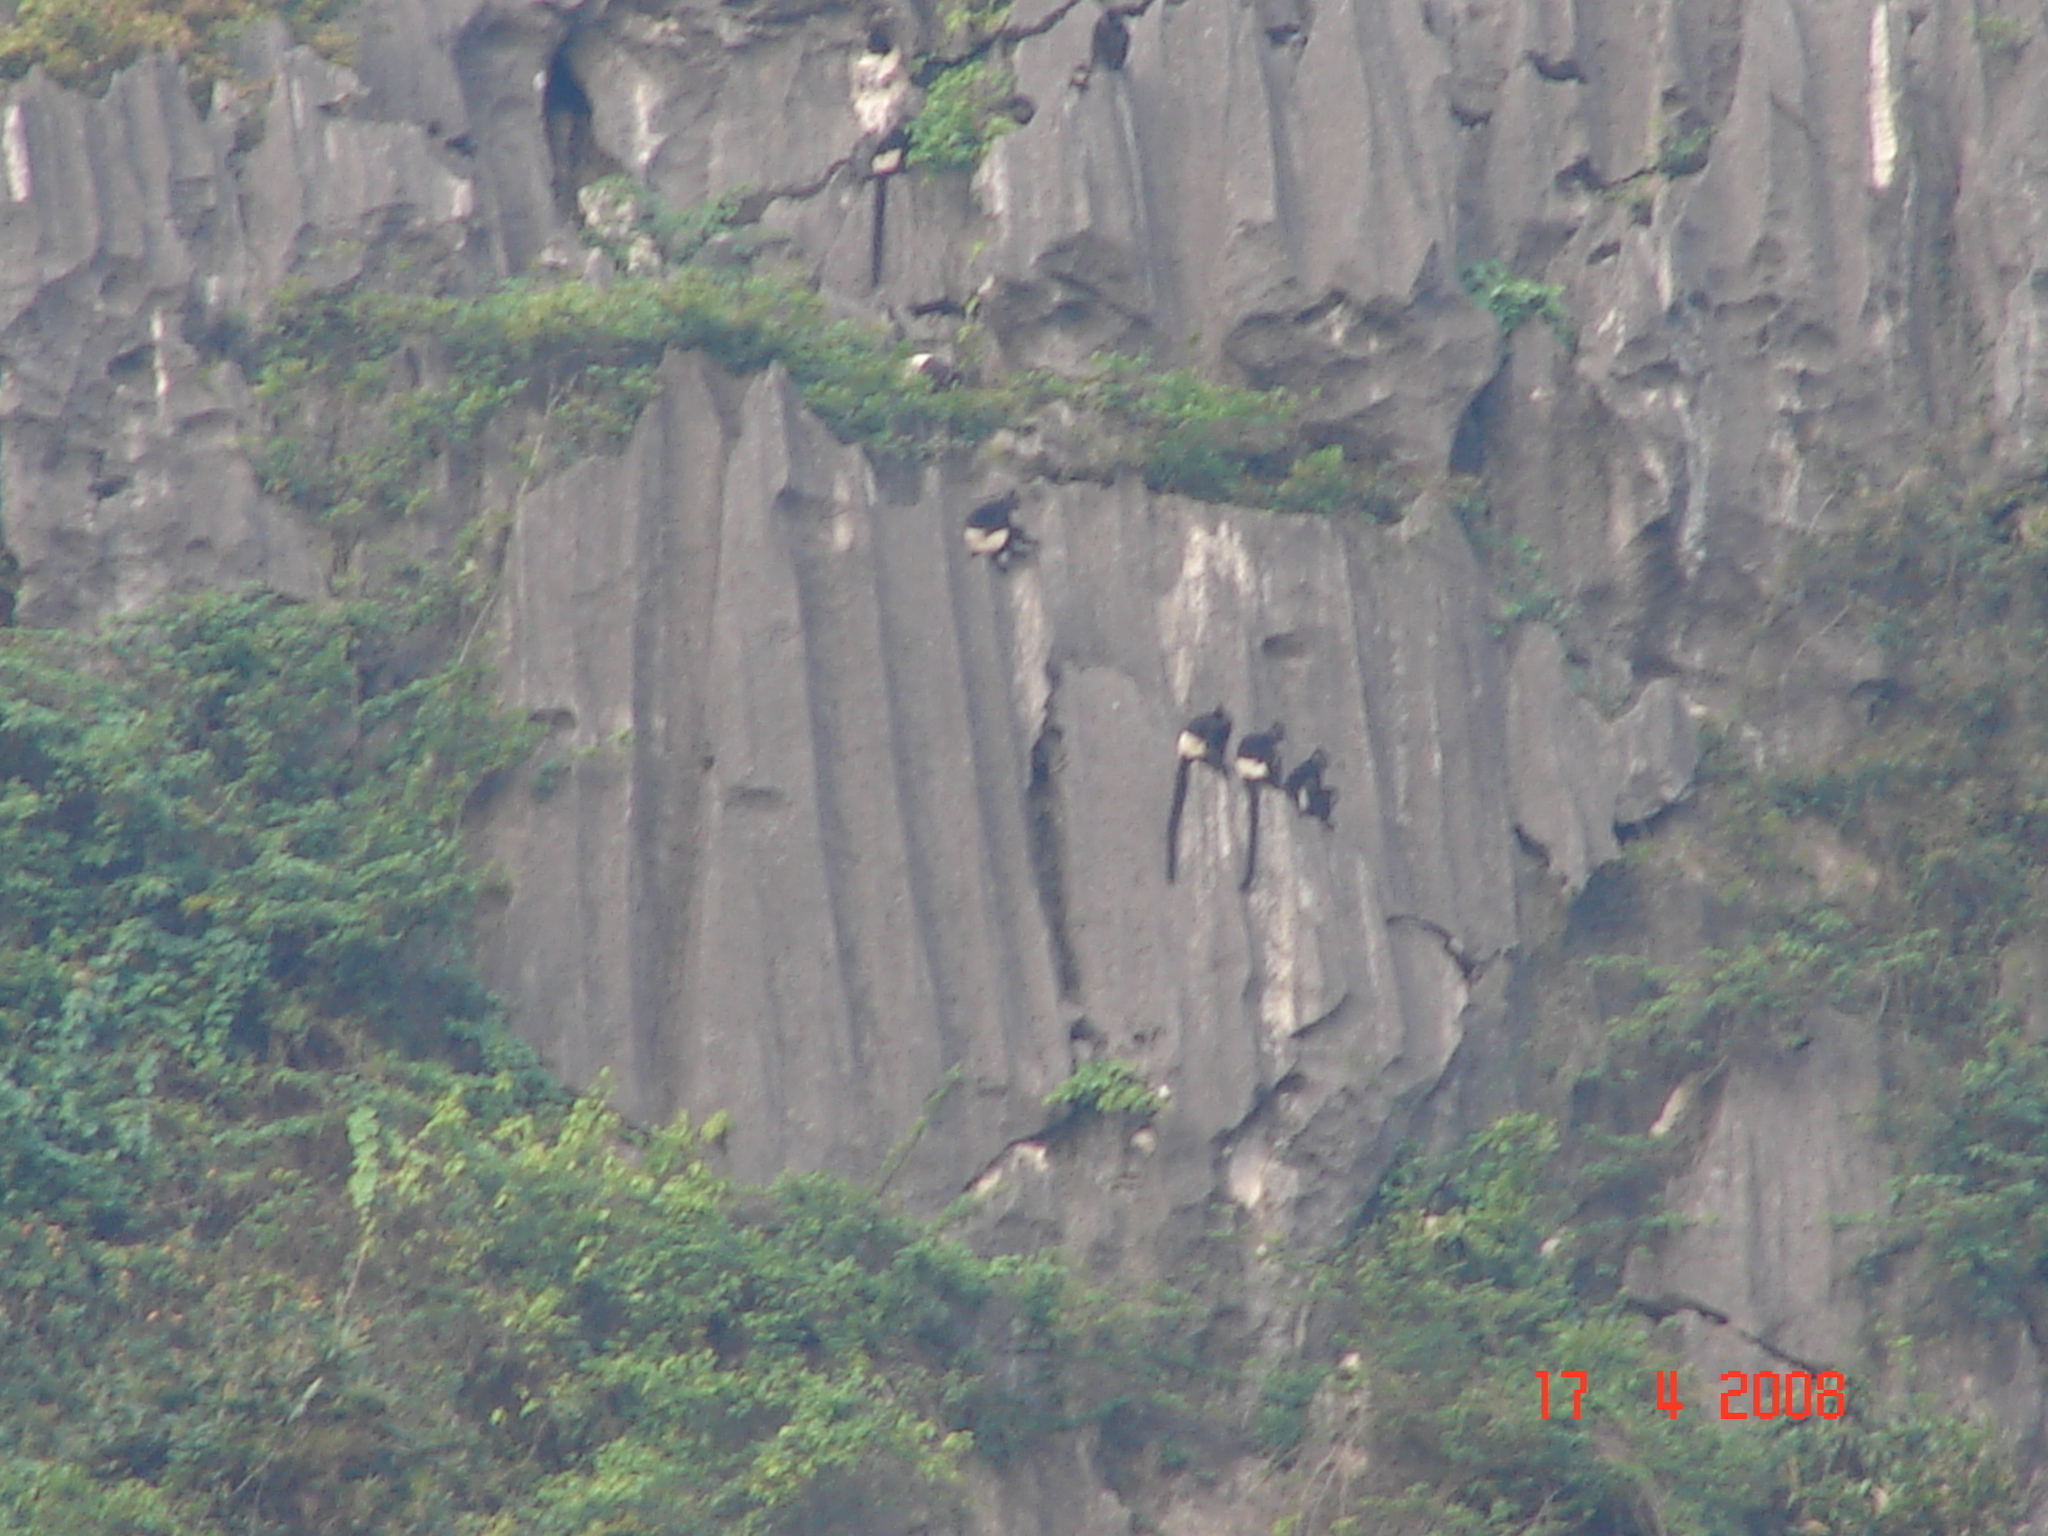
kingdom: Animalia
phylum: Chordata
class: Mammalia
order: Primates
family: Cercopithecidae
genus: Trachypithecus
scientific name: Trachypithecus delacouri
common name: Delacour's langur
